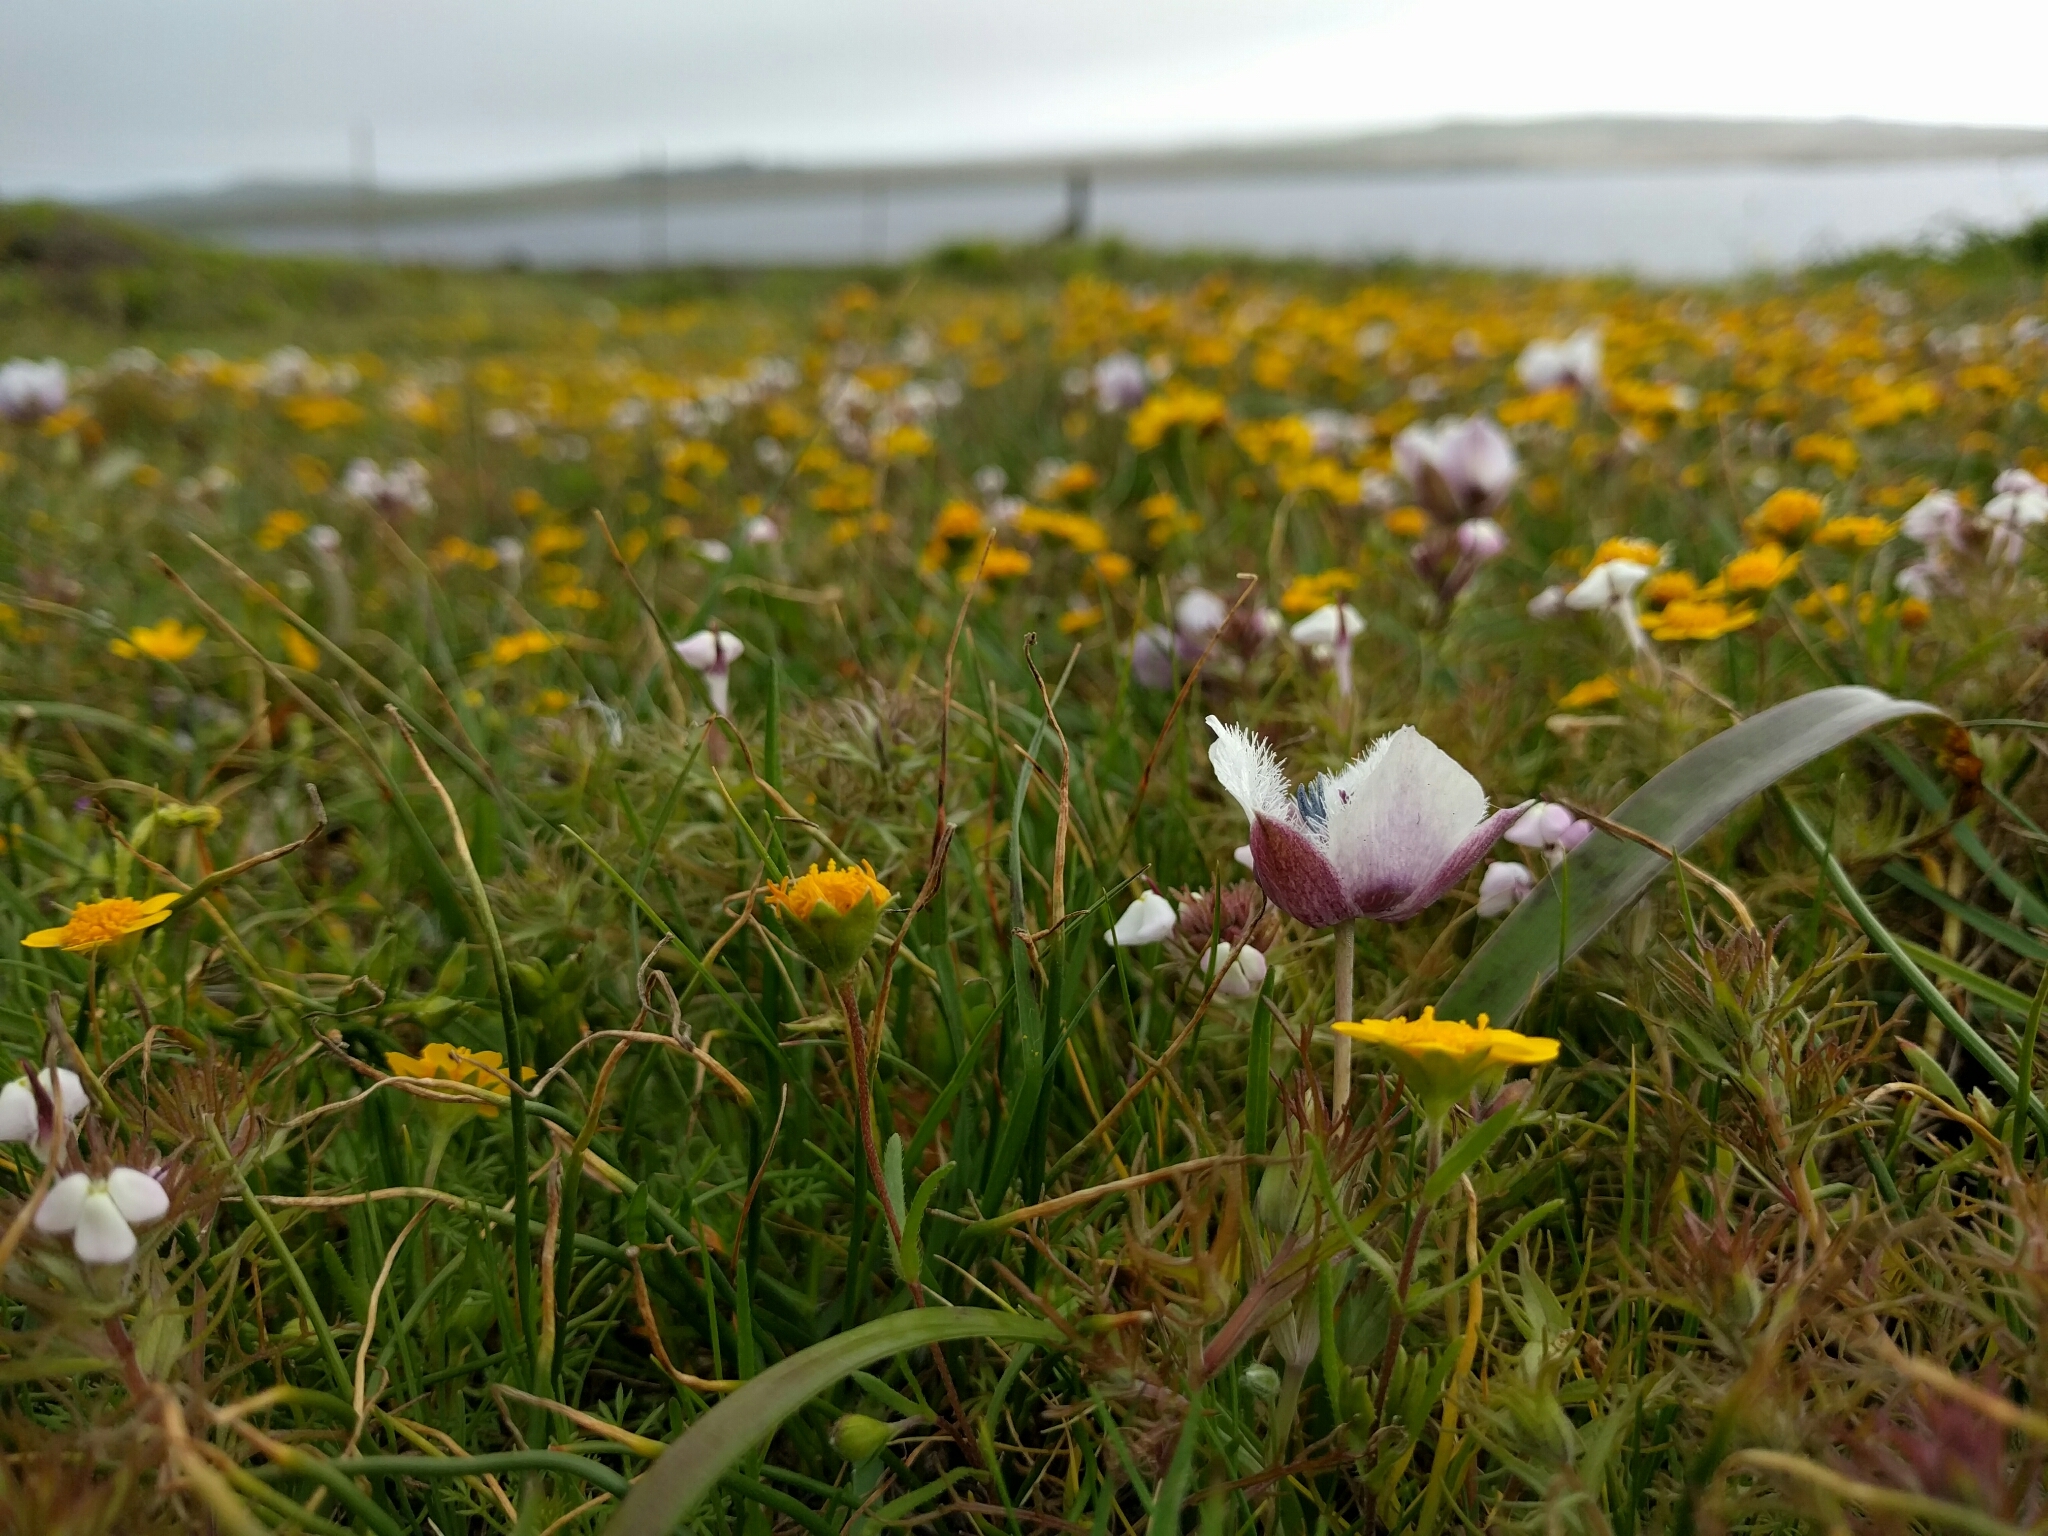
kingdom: Plantae
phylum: Tracheophyta
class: Liliopsida
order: Liliales
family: Liliaceae
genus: Calochortus
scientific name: Calochortus tolmiei
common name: Pussy-ears
